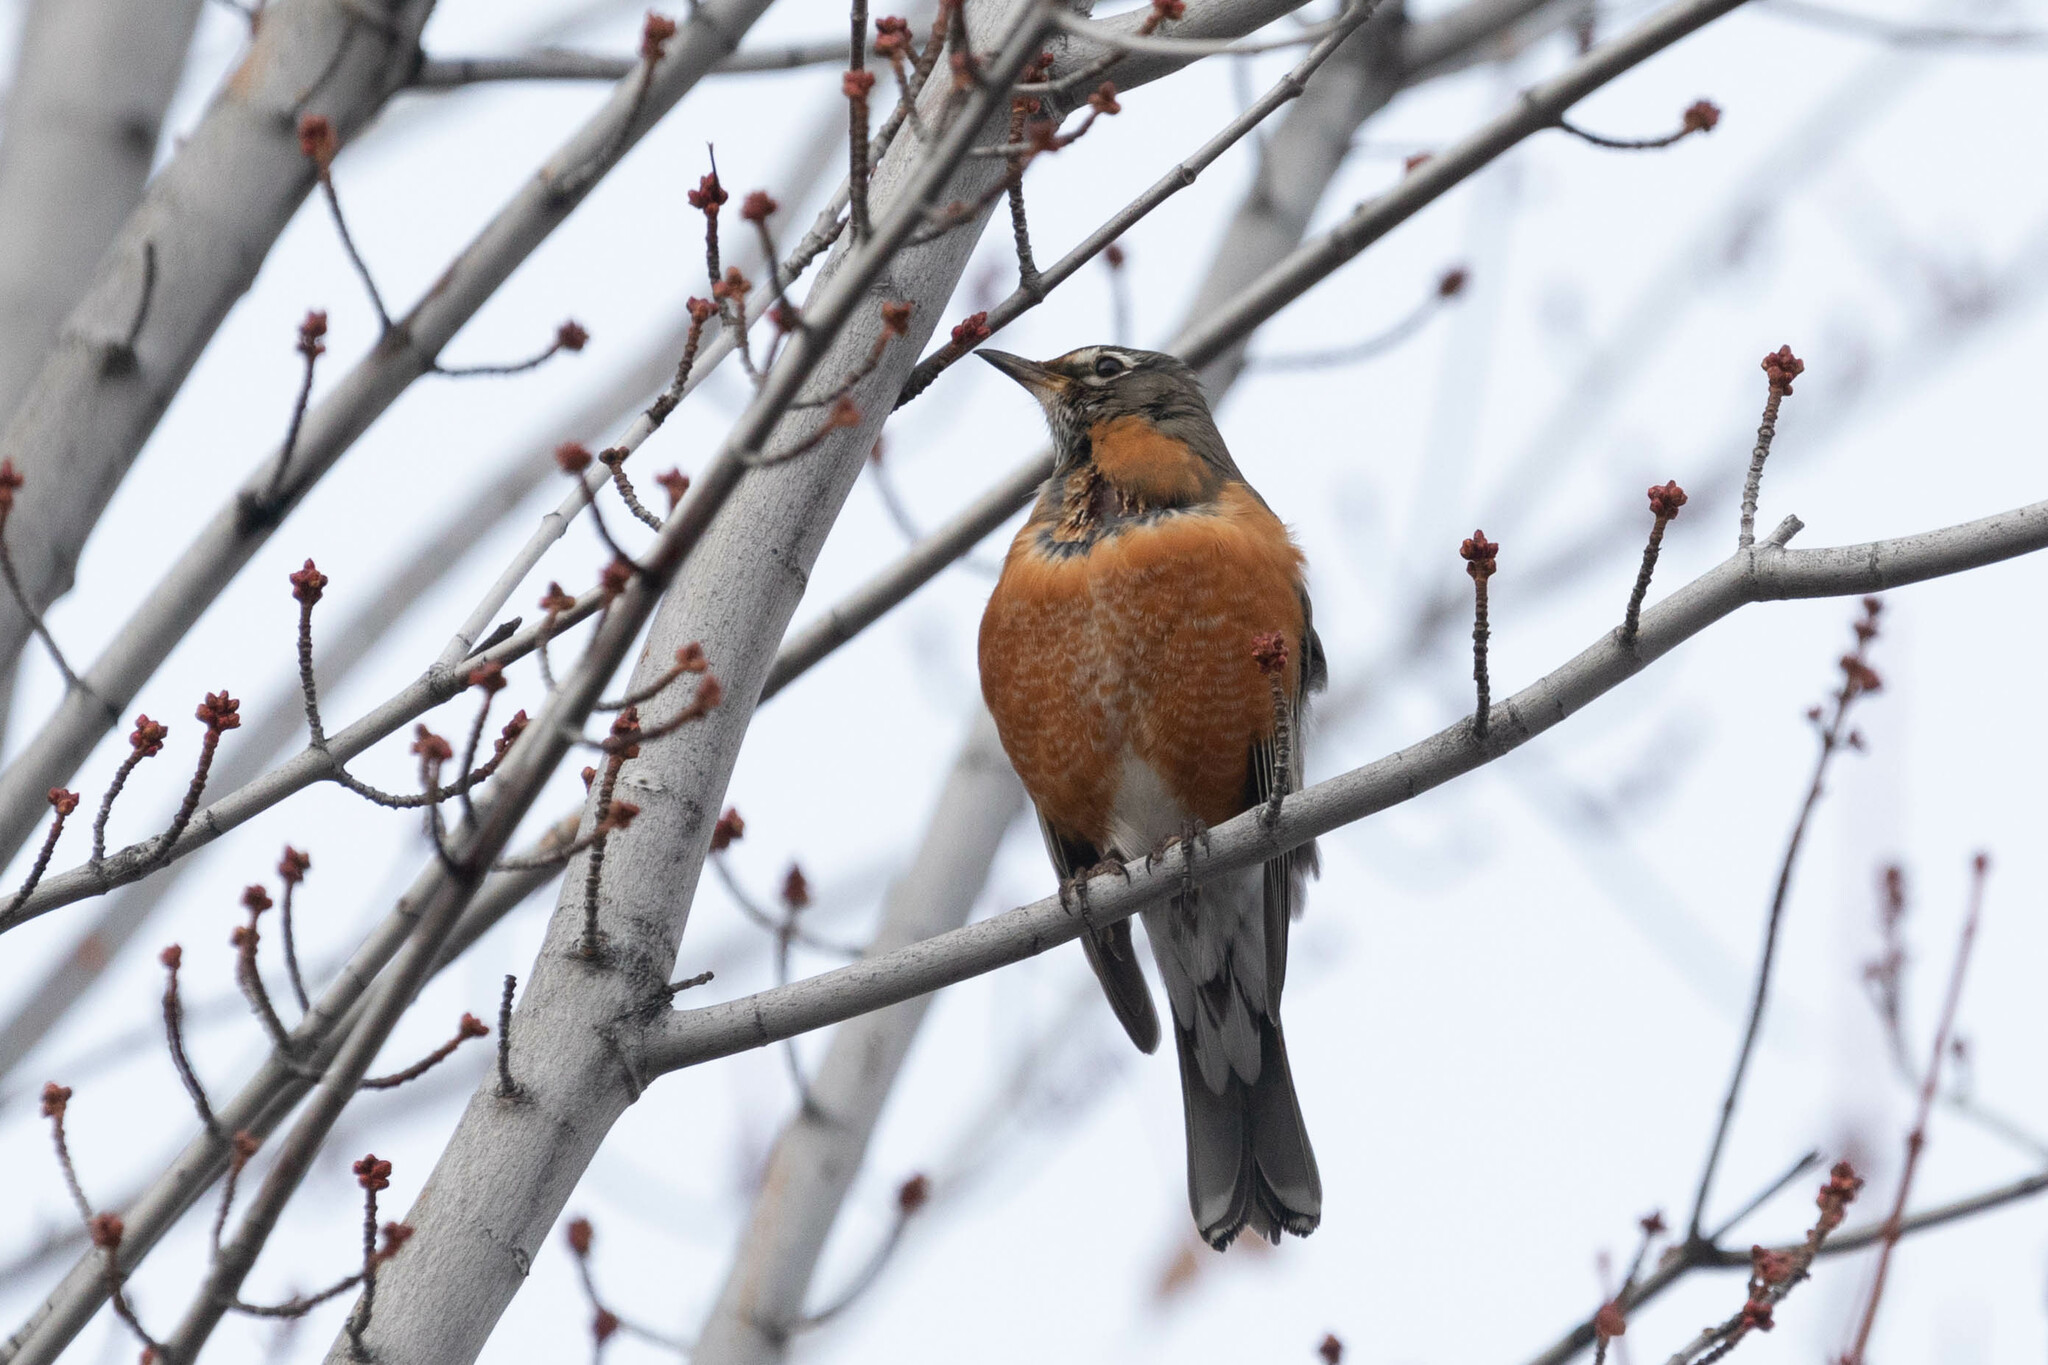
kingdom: Animalia
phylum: Chordata
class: Aves
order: Passeriformes
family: Turdidae
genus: Turdus
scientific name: Turdus migratorius
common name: American robin
